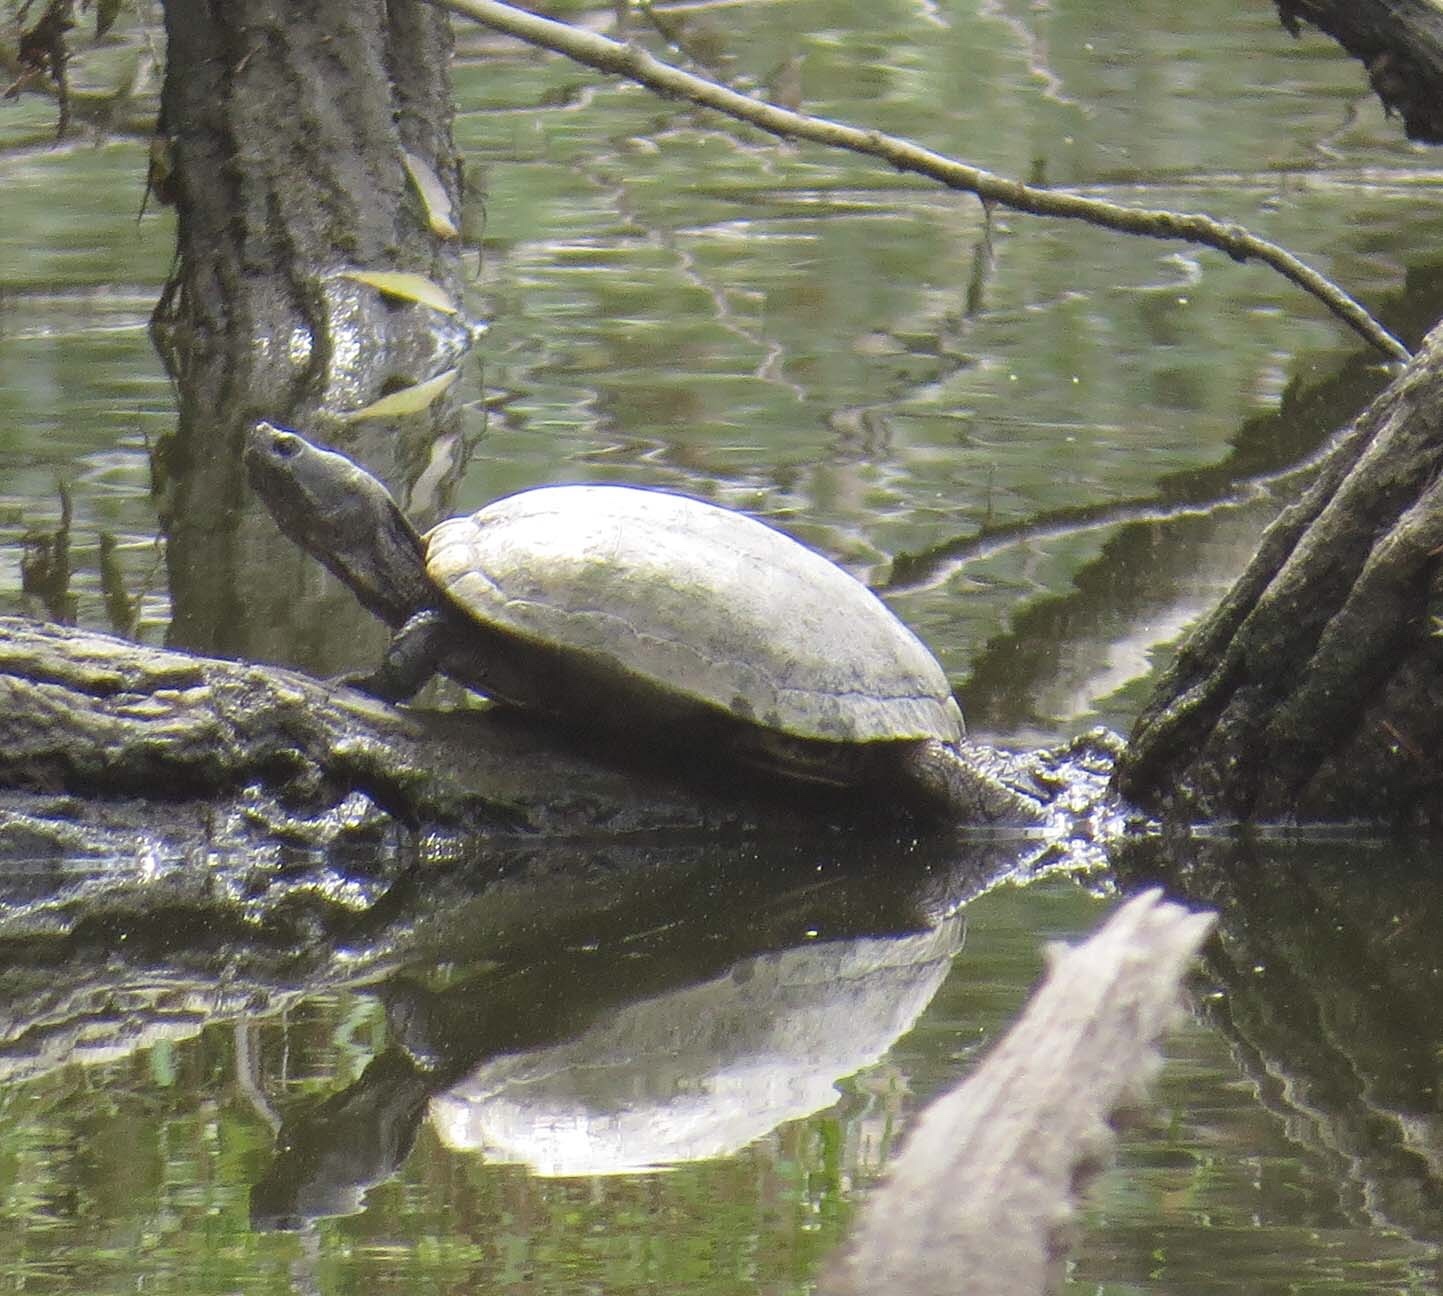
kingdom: Animalia
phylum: Chordata
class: Testudines
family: Emydidae
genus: Trachemys
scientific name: Trachemys scripta
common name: Slider
